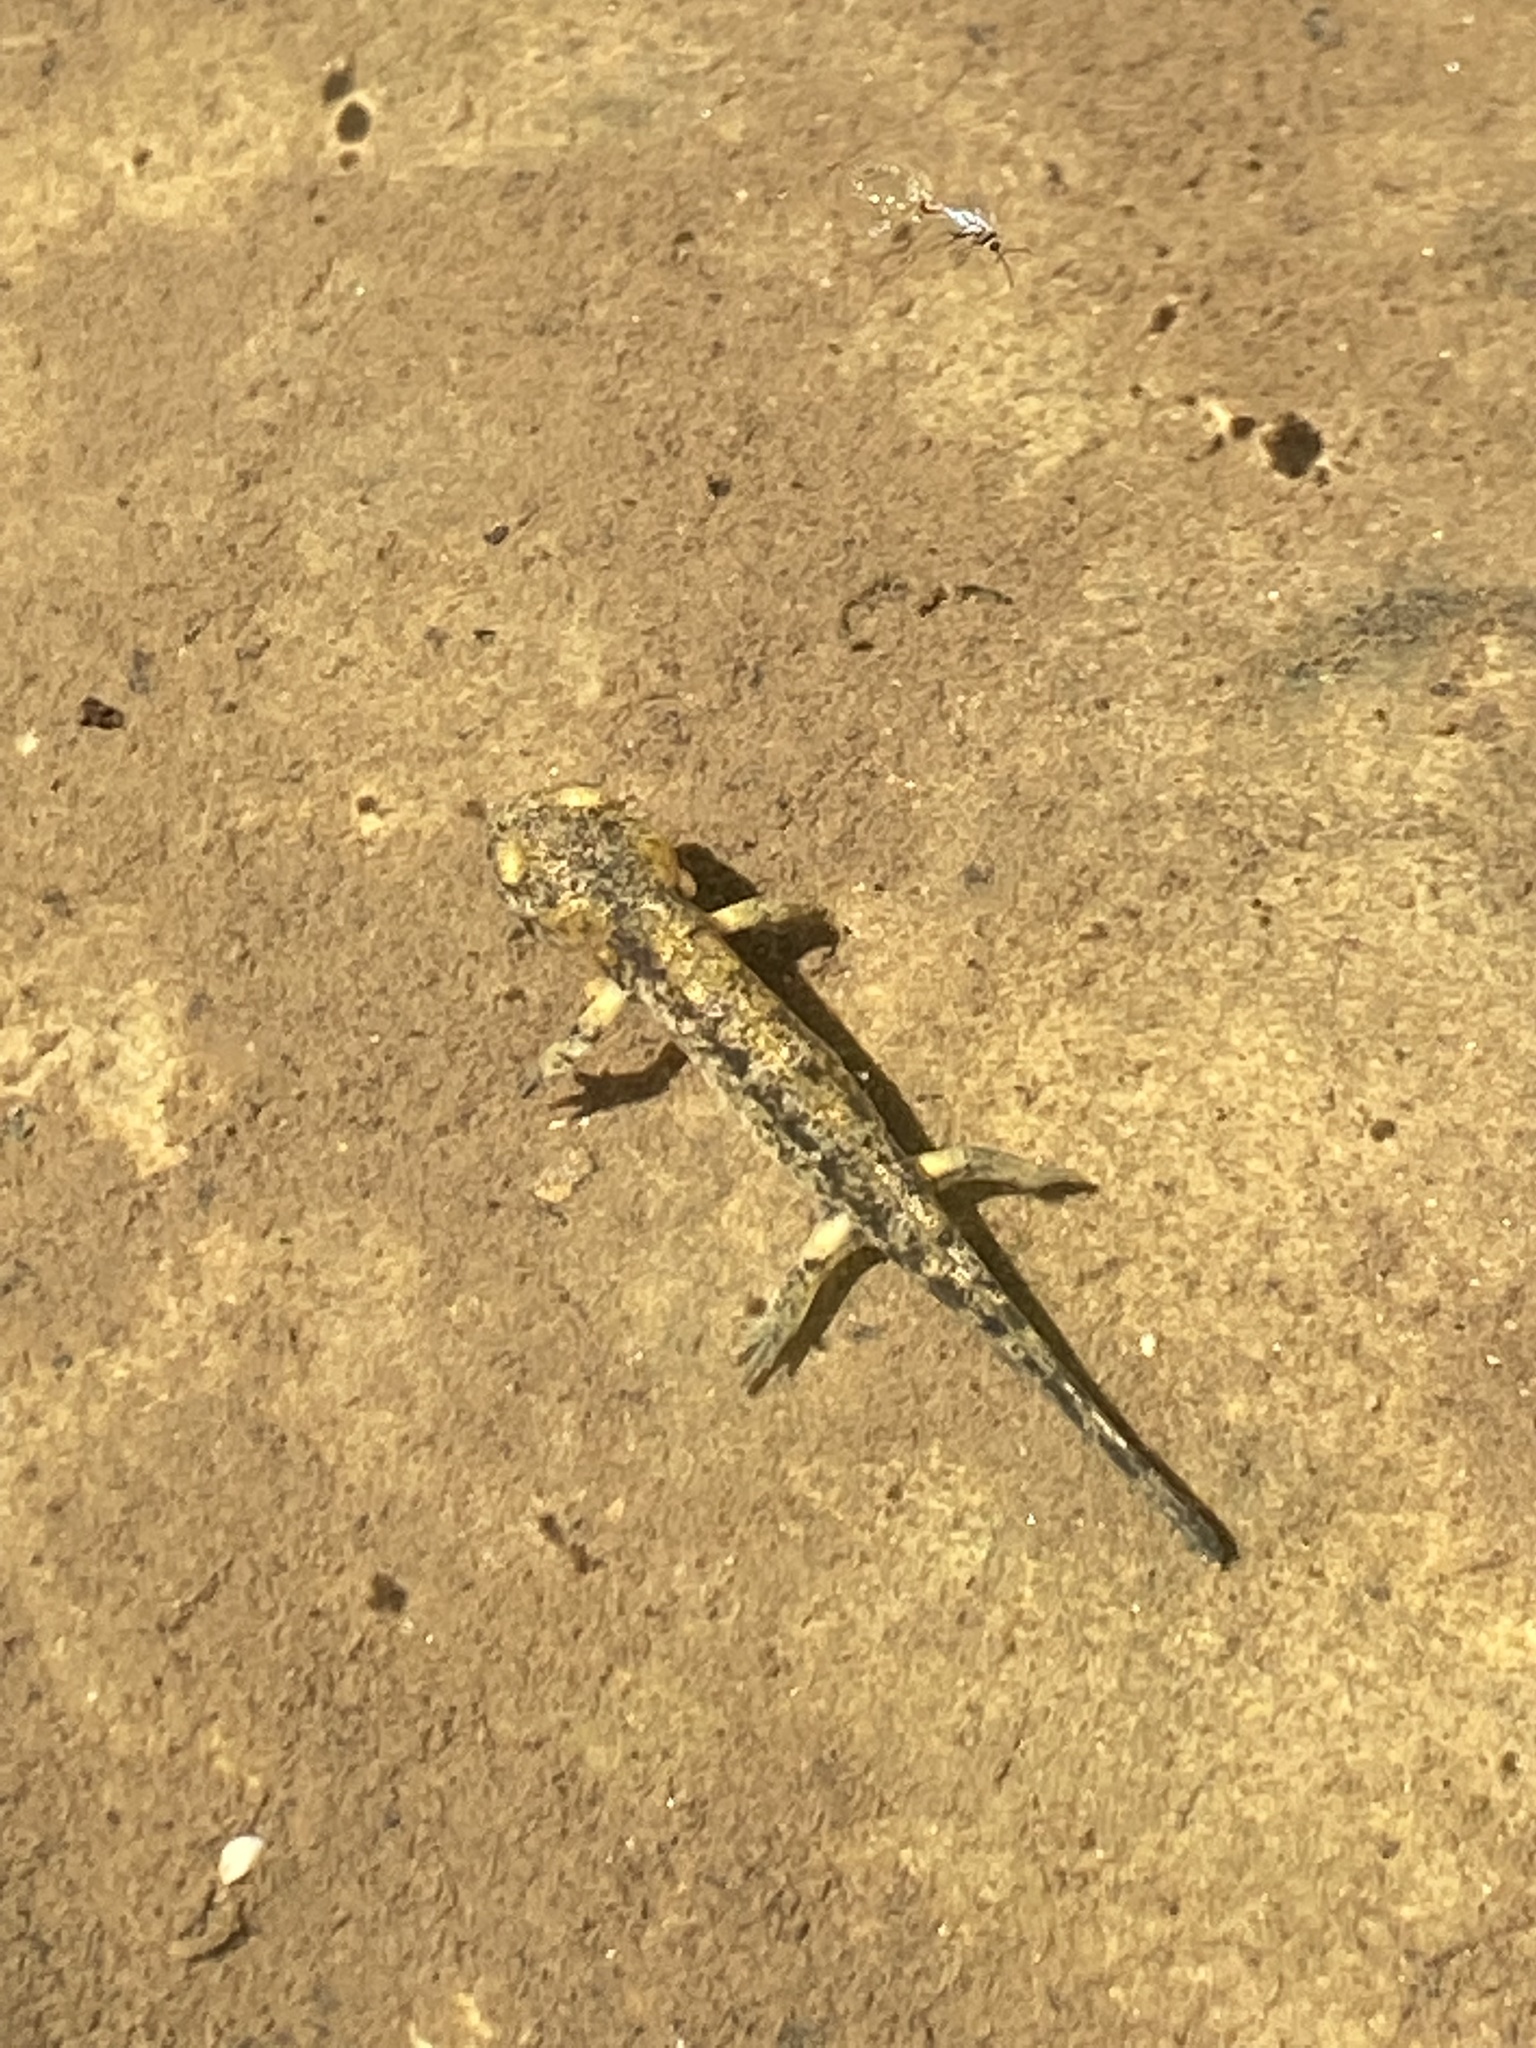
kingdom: Animalia
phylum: Chordata
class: Amphibia
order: Caudata
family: Salamandridae
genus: Salamandra
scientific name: Salamandra salamandra
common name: Fire salamander
